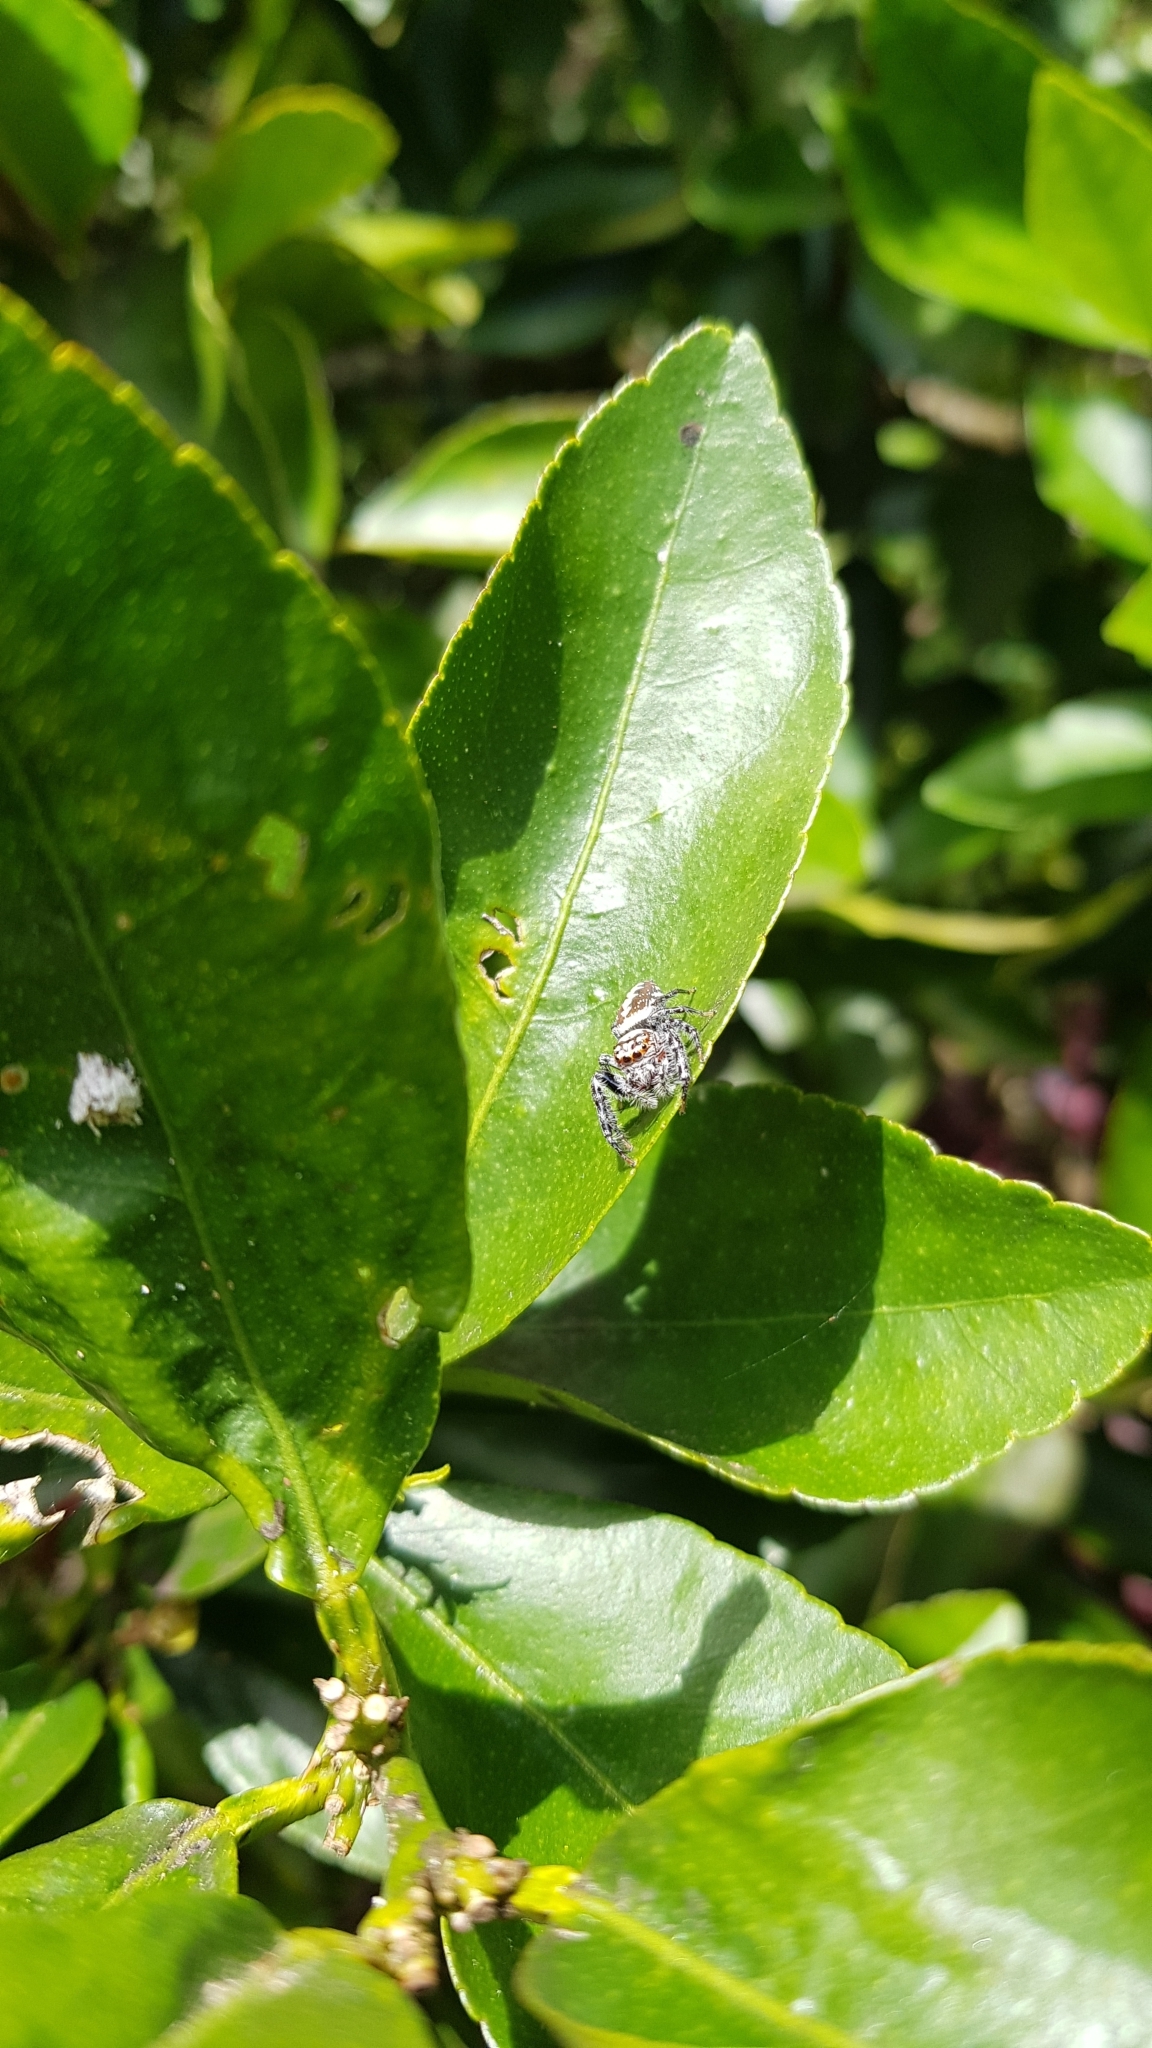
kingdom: Animalia
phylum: Arthropoda
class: Arachnida
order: Araneae
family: Salticidae
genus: Opisthoncus
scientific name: Opisthoncus quadratarius
